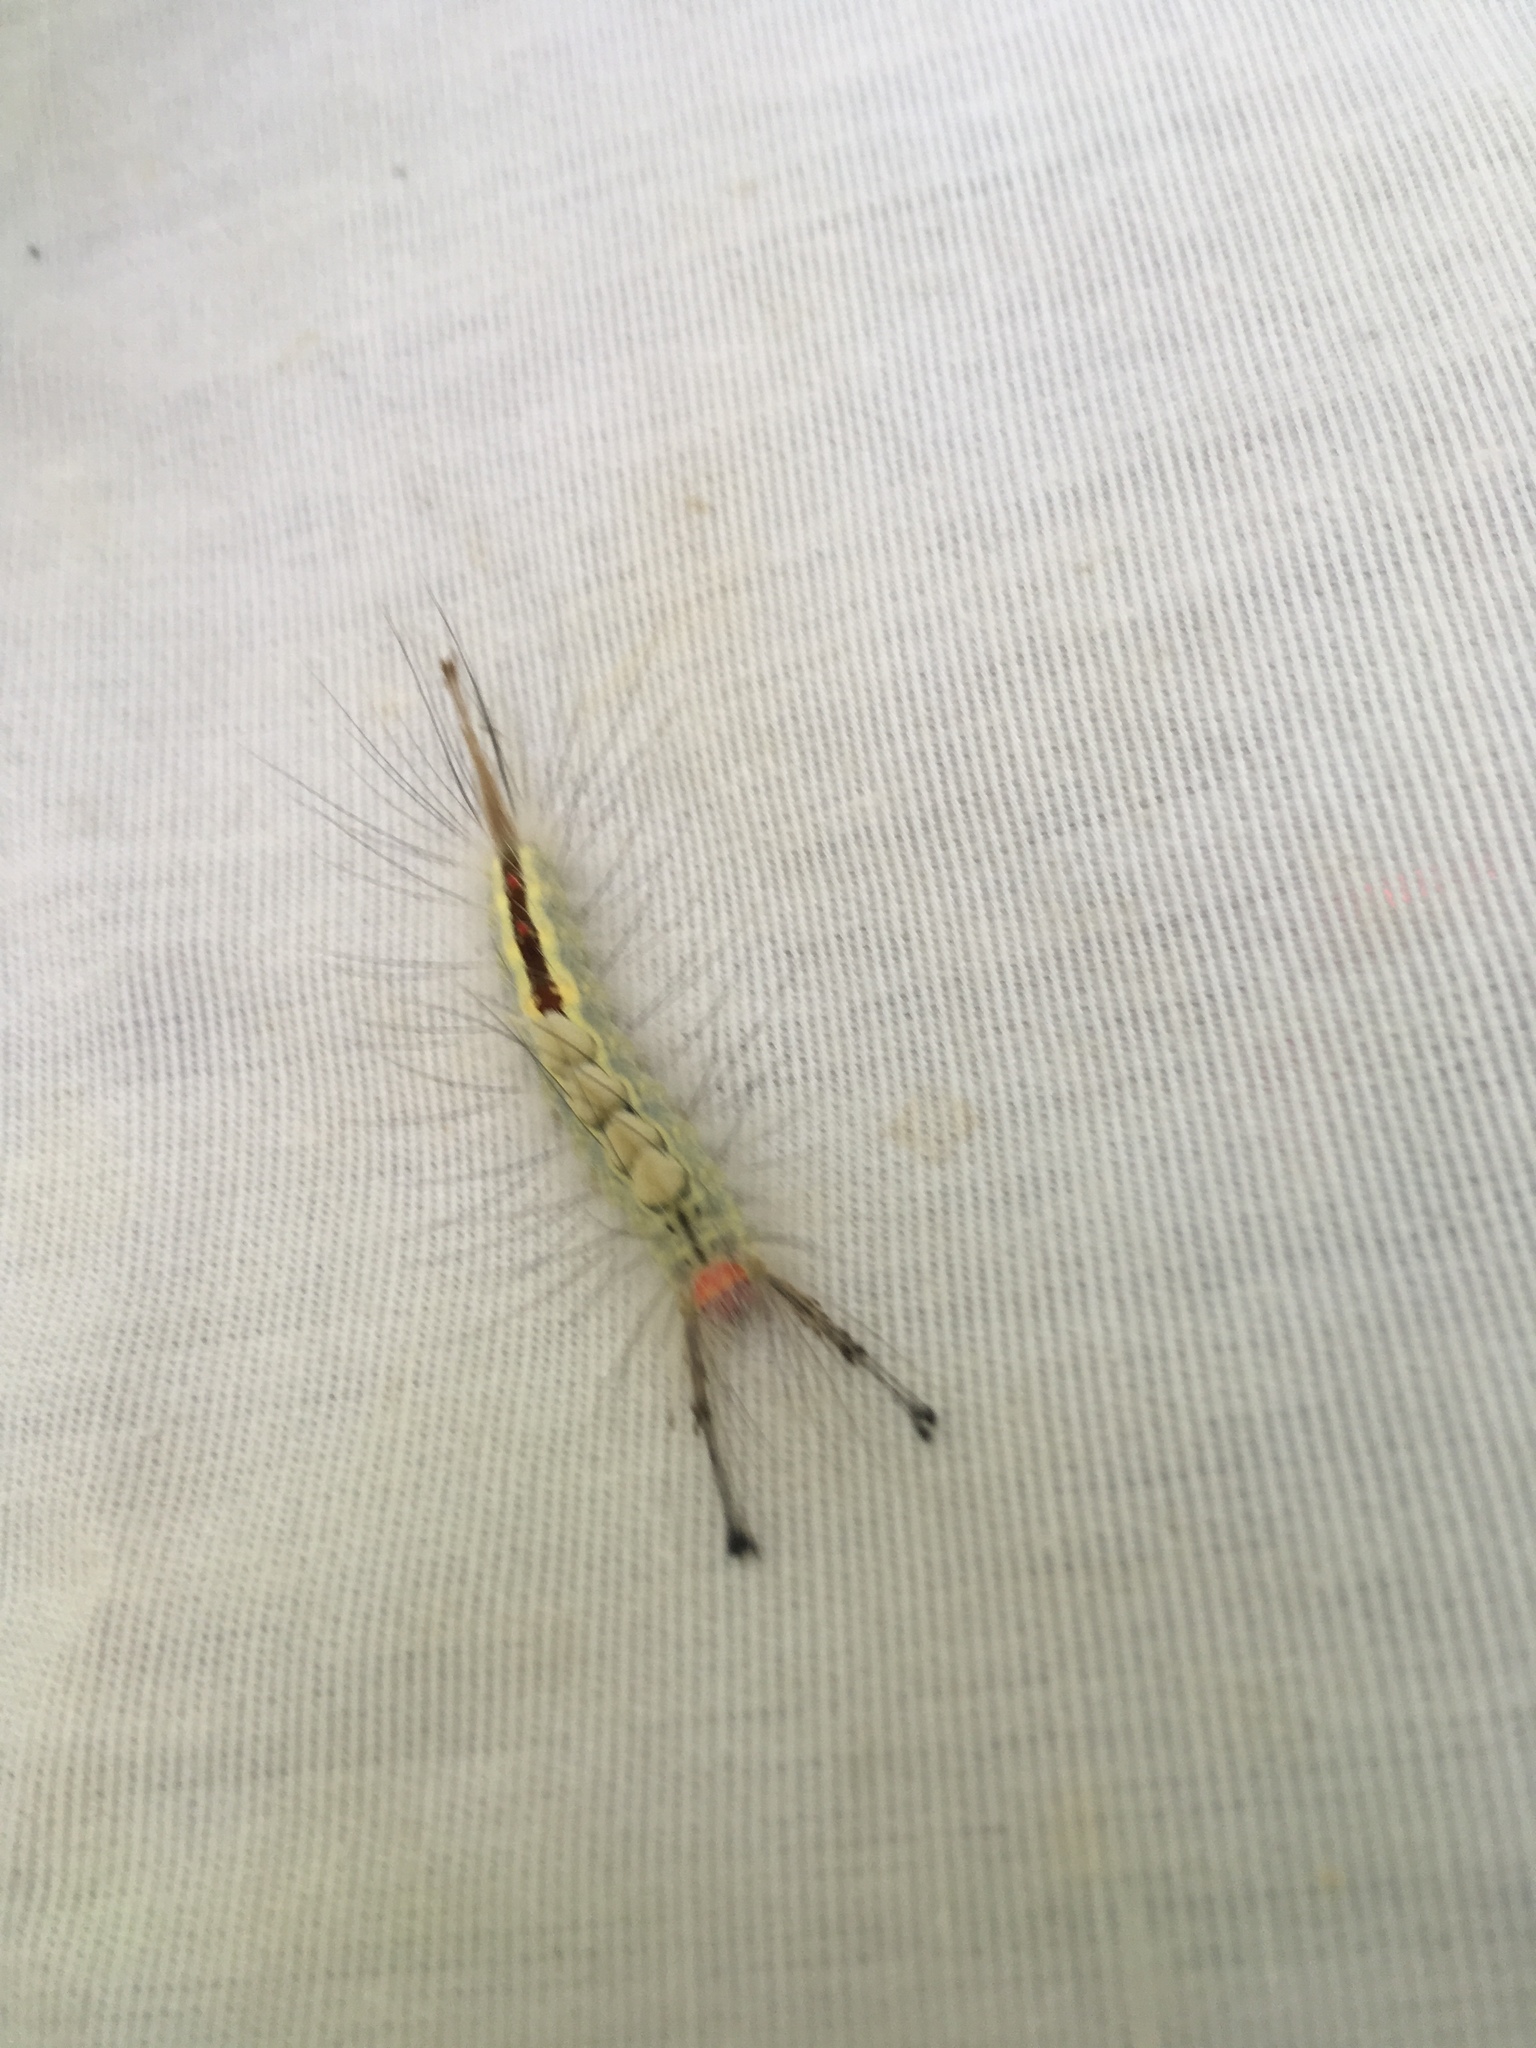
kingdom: Animalia
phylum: Arthropoda
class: Insecta
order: Lepidoptera
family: Erebidae
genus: Orgyia
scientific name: Orgyia leucostigma
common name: White-marked tussock moth
